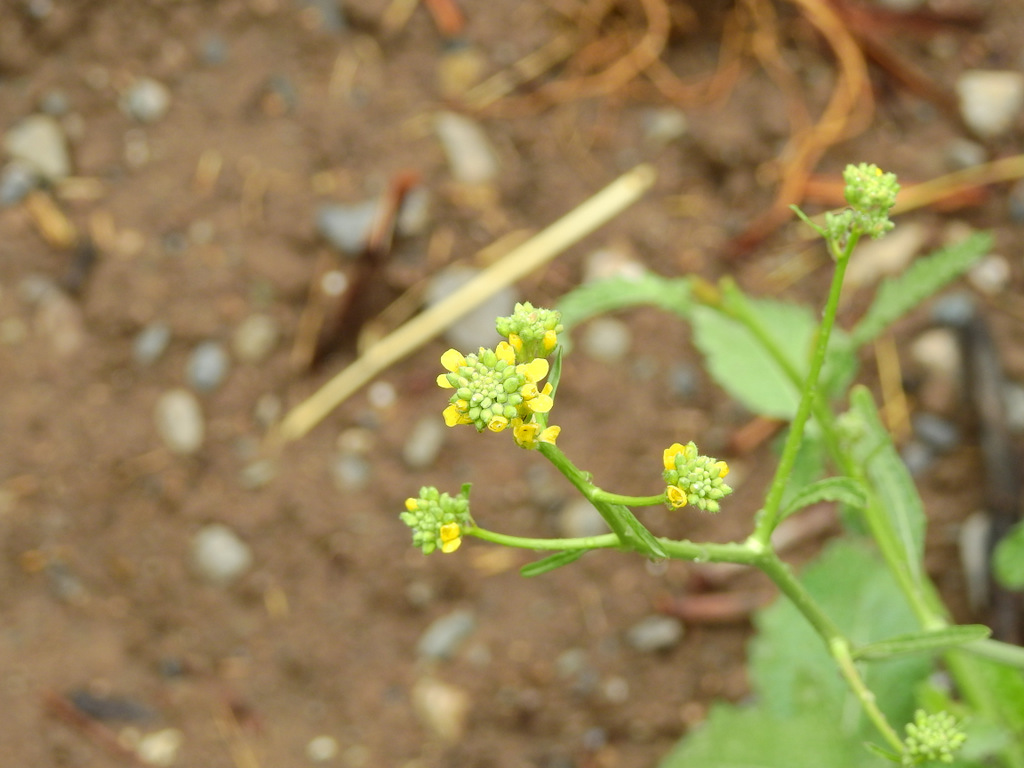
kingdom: Plantae
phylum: Tracheophyta
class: Magnoliopsida
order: Brassicales
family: Brassicaceae
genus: Hirschfeldia
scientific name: Hirschfeldia incana
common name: Hoary mustard
